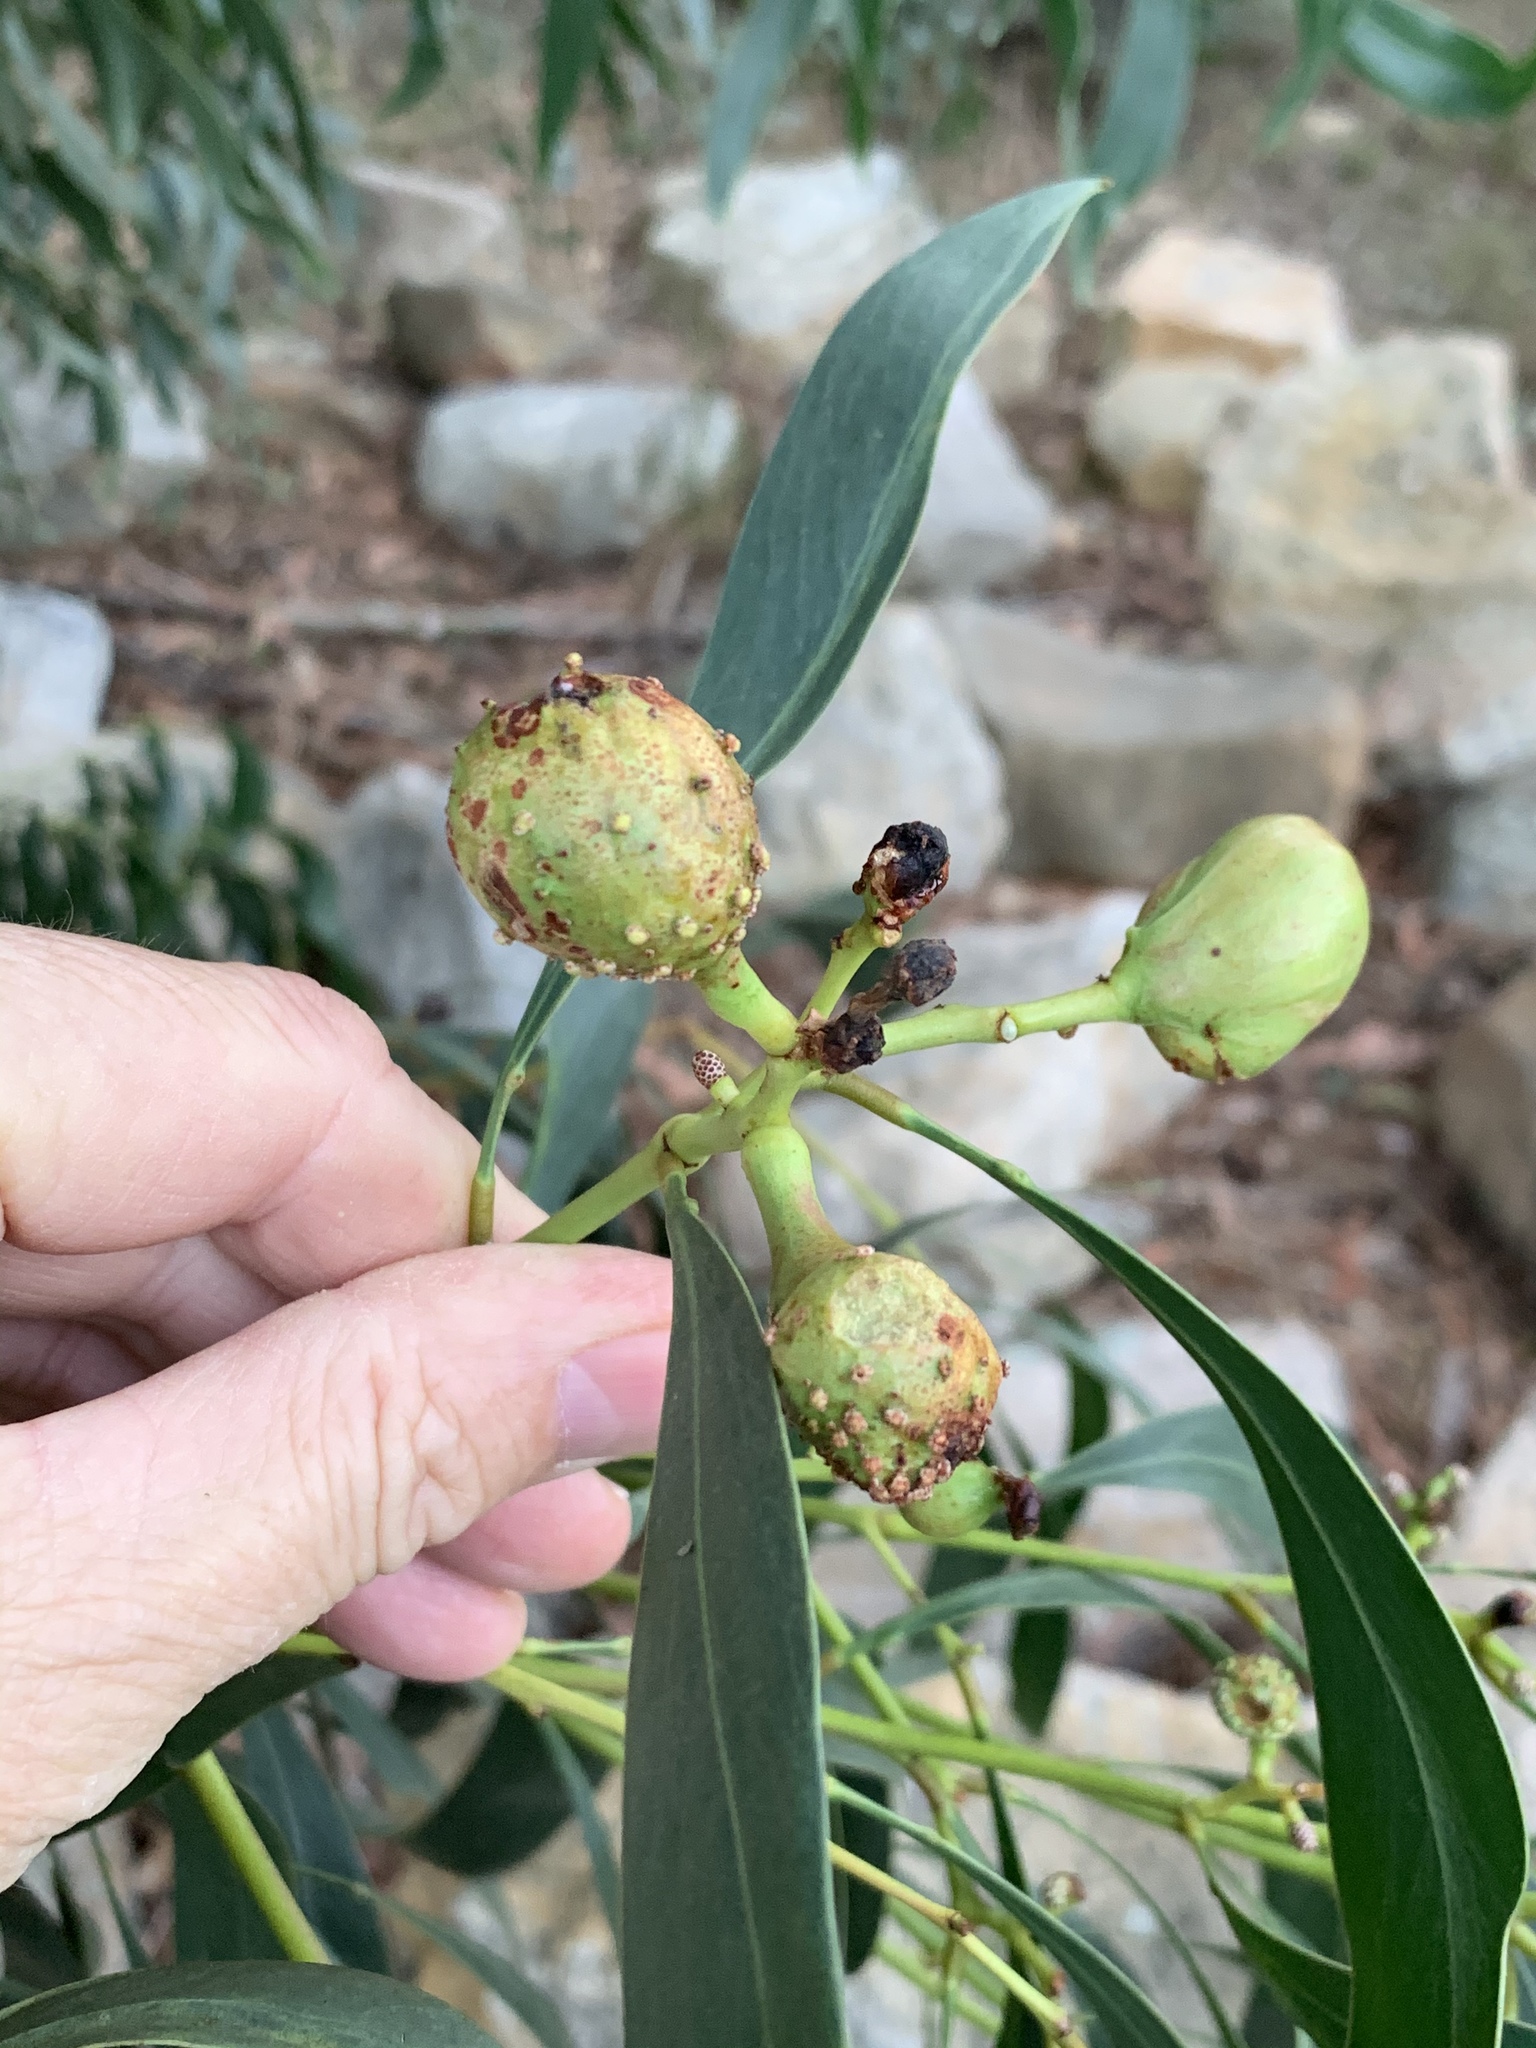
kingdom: Plantae
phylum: Tracheophyta
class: Magnoliopsida
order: Fabales
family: Fabaceae
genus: Acacia
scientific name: Acacia pycnantha
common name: Golden wattle
